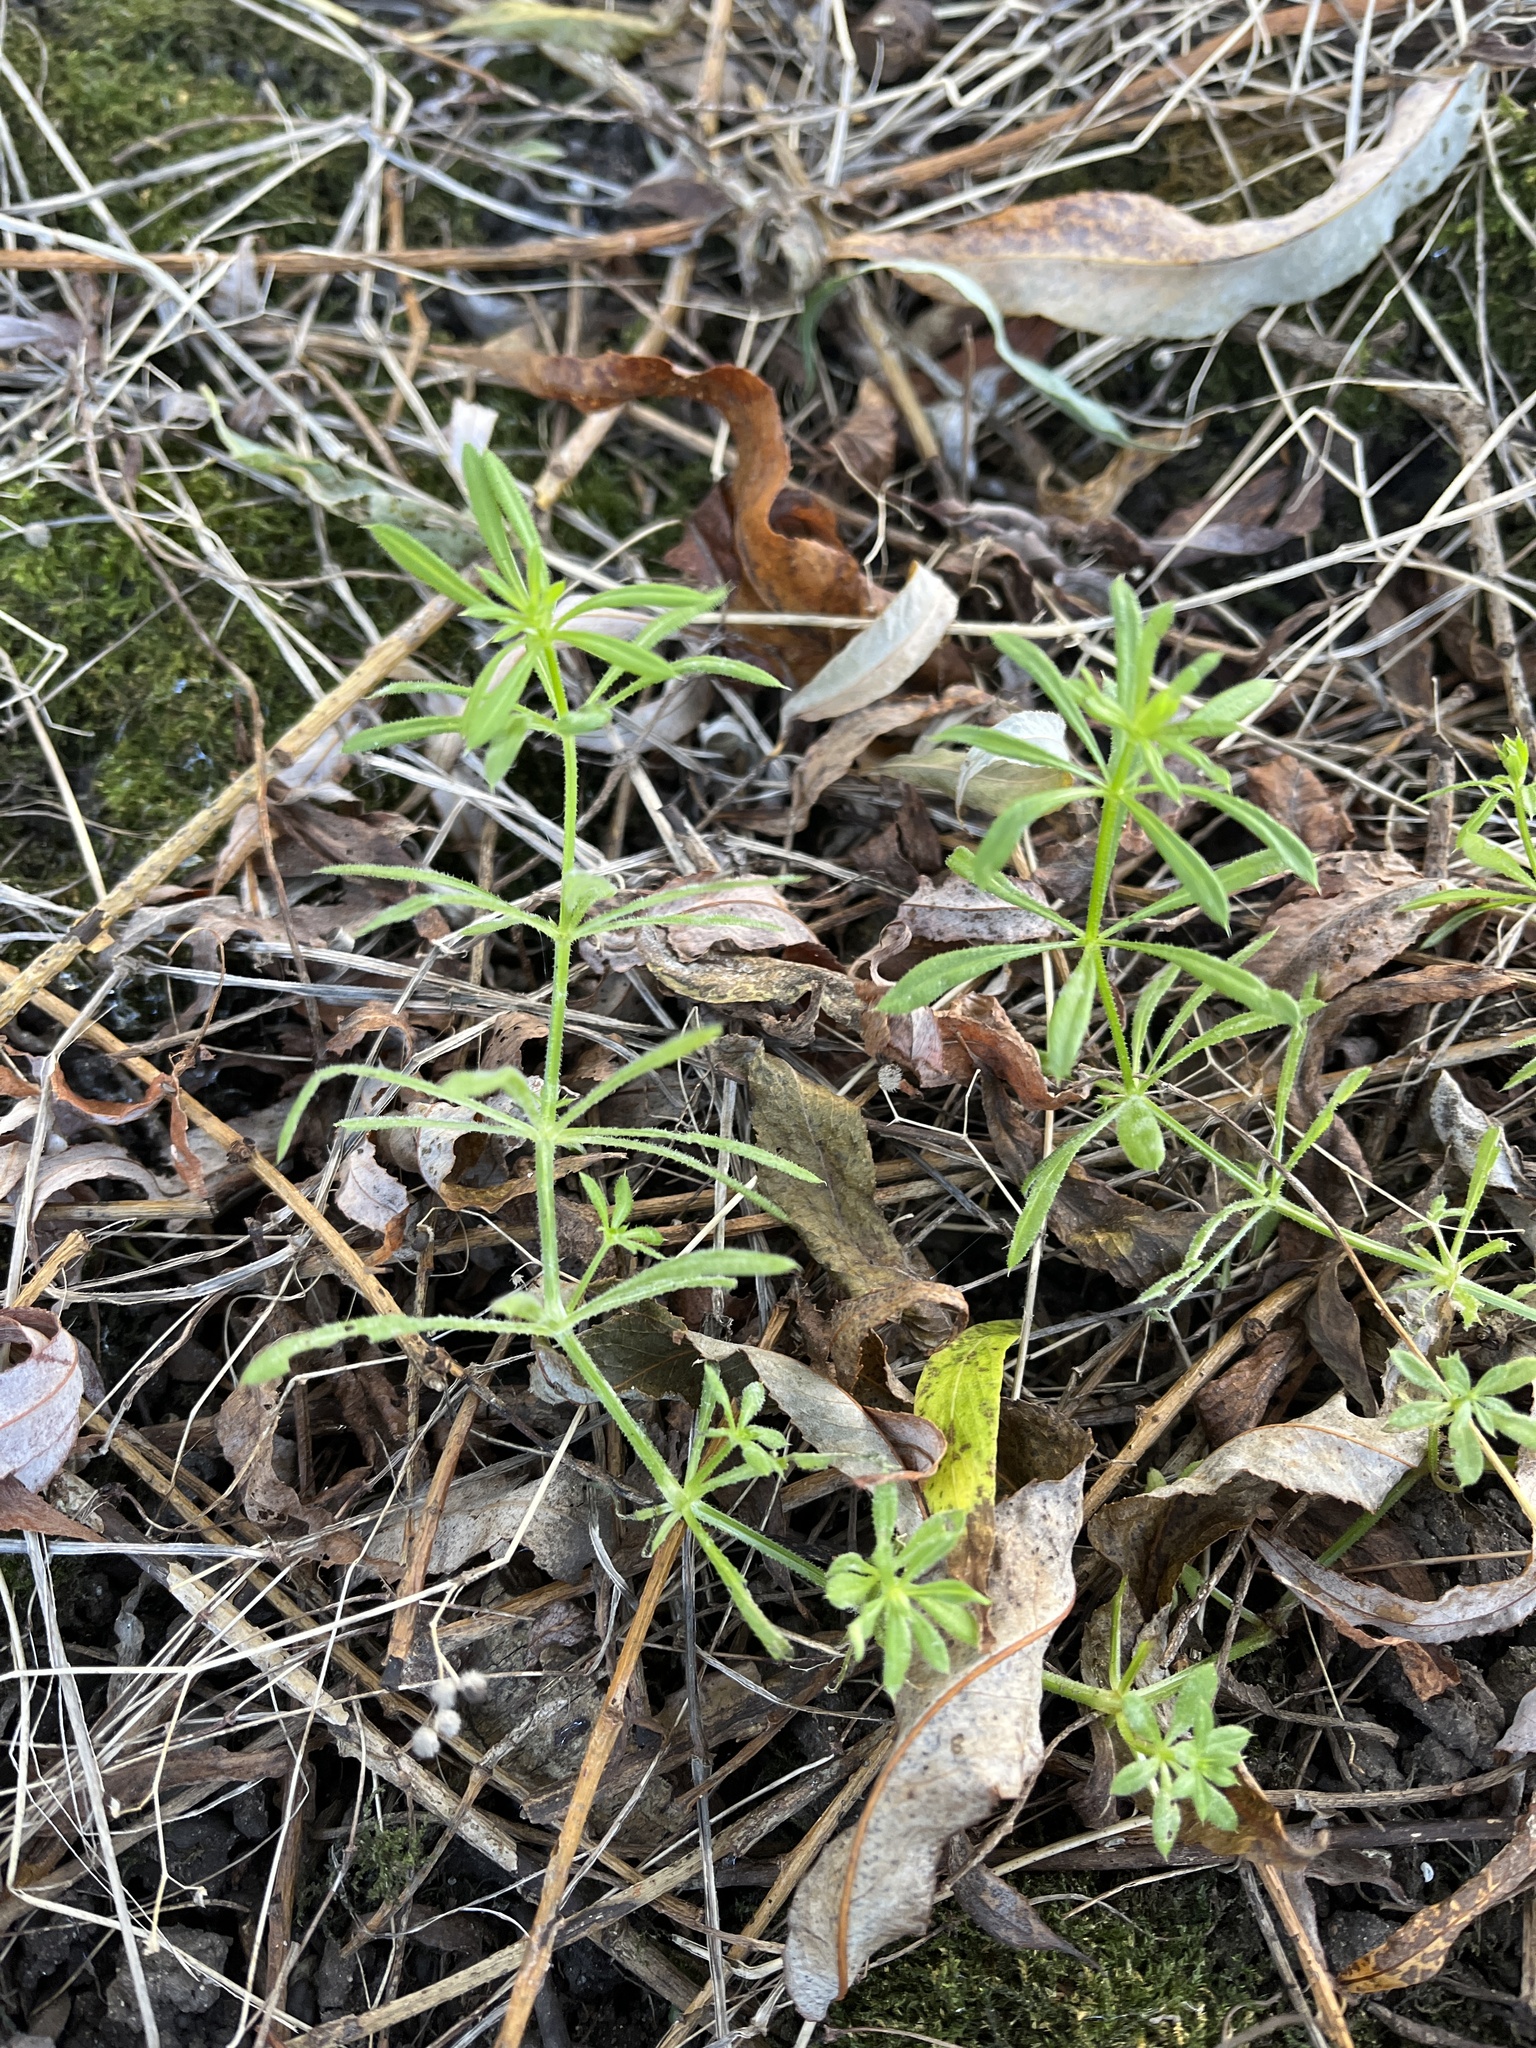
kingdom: Plantae
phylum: Tracheophyta
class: Magnoliopsida
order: Gentianales
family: Rubiaceae
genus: Galium
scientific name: Galium aparine
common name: Cleavers
